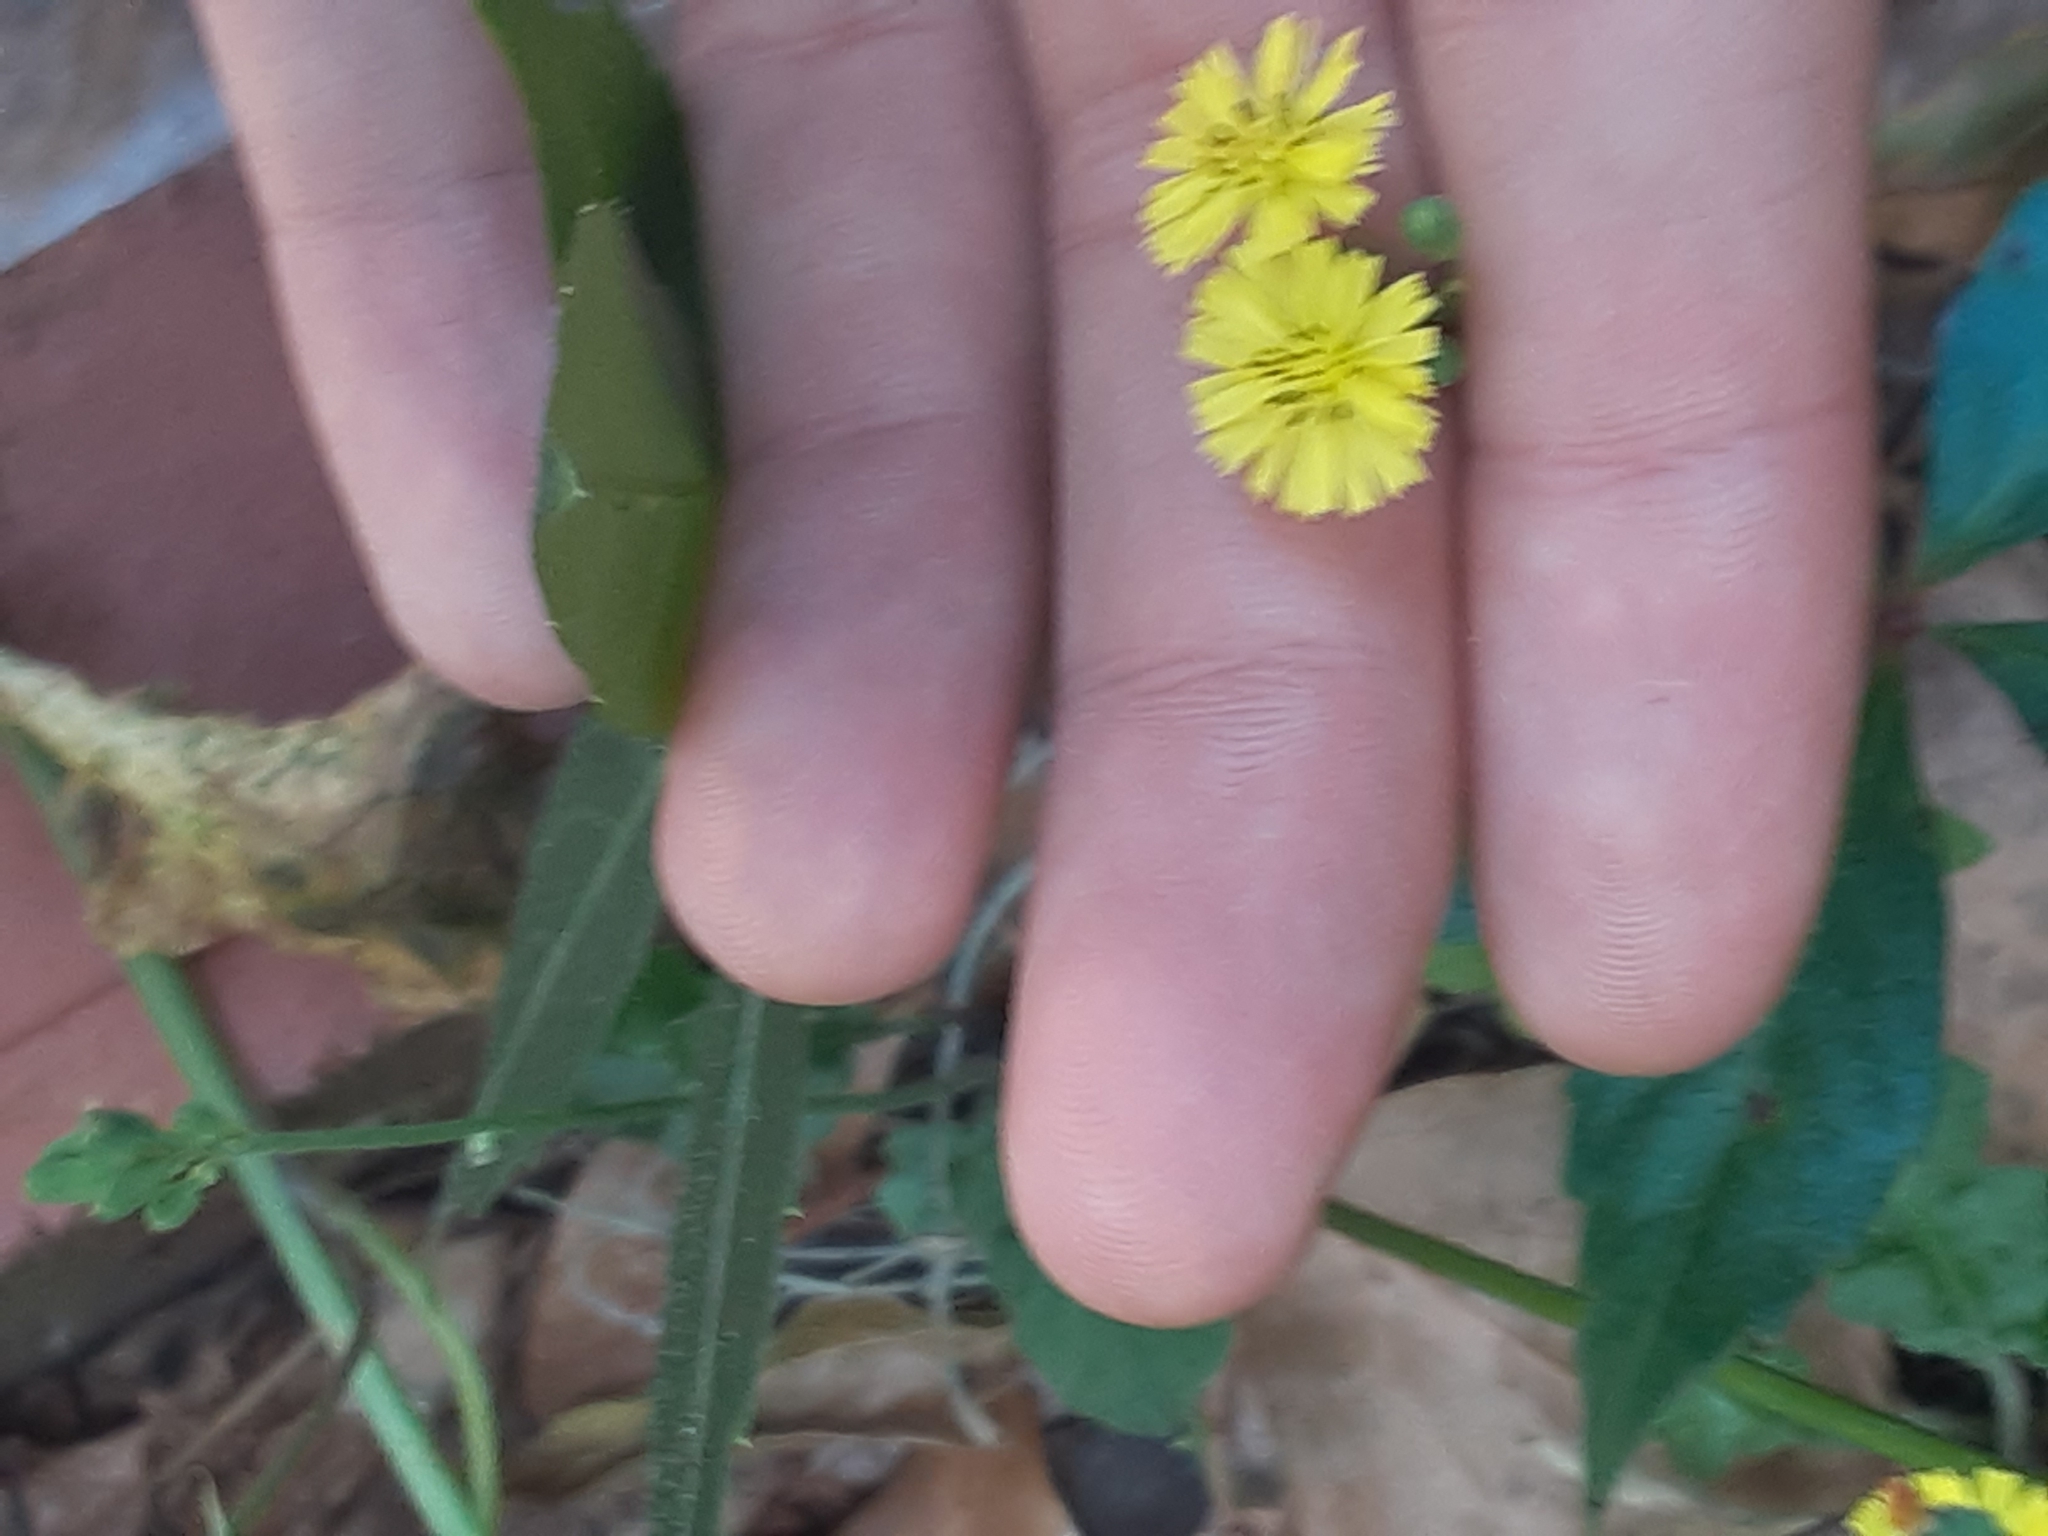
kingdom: Plantae
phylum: Tracheophyta
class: Magnoliopsida
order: Asterales
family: Asteraceae
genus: Youngia
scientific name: Youngia japonica
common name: Oriental false hawksbeard
